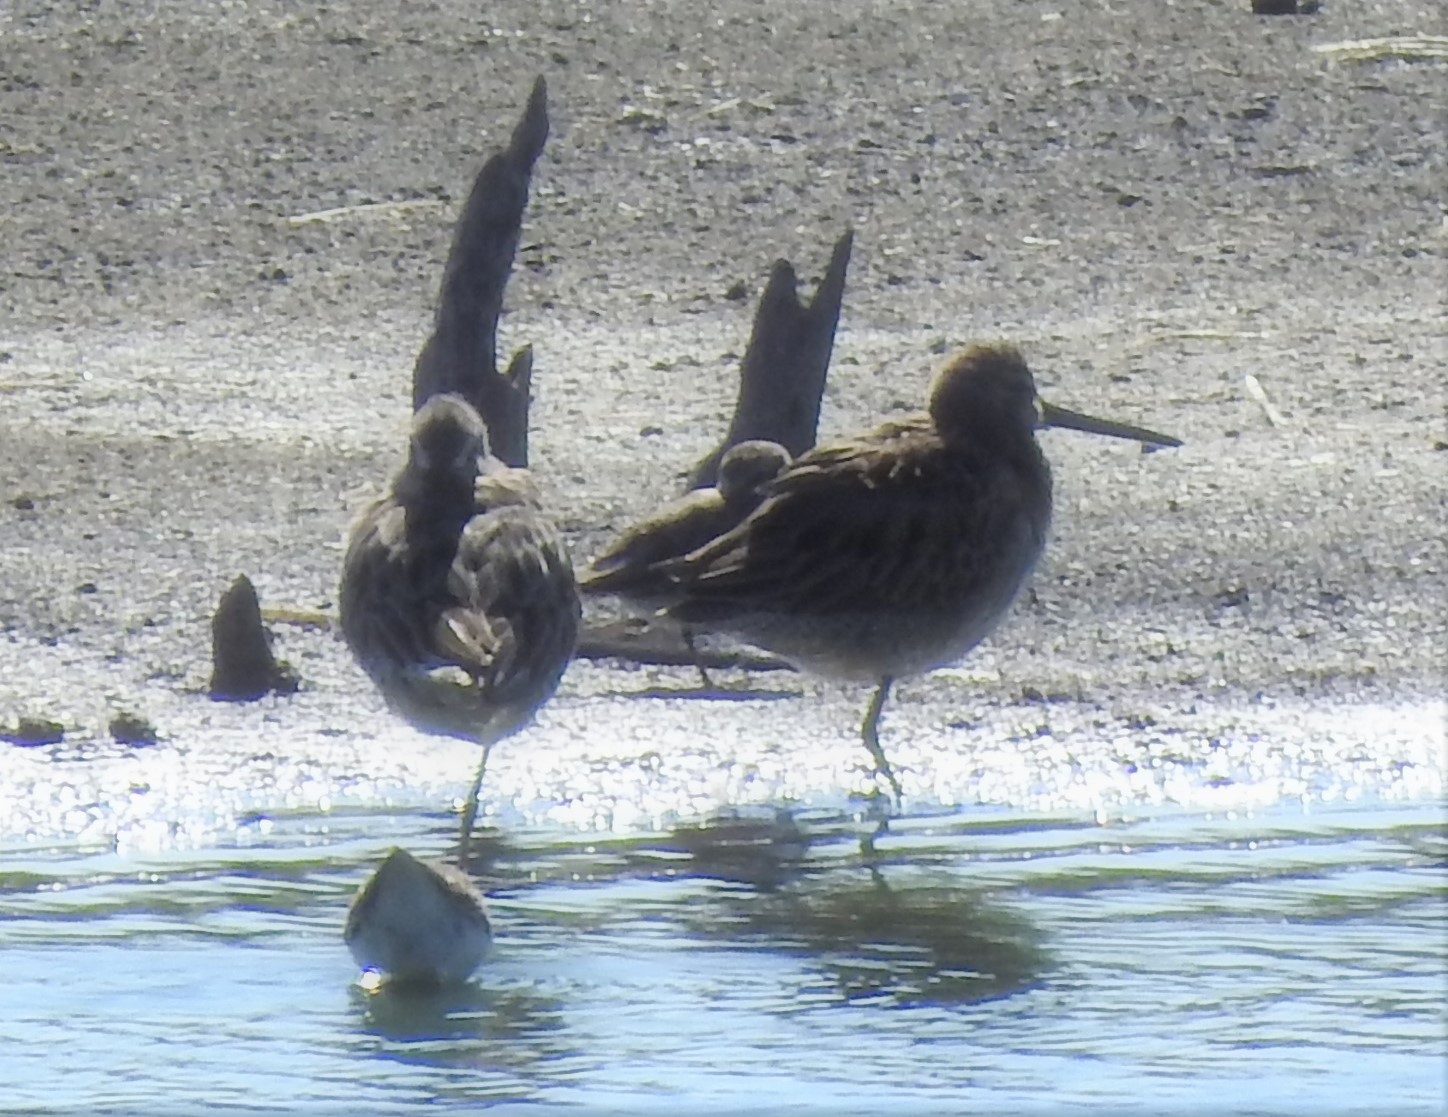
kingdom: Animalia
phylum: Chordata
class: Aves
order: Charadriiformes
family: Scolopacidae
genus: Tringa
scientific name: Tringa semipalmata
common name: Willet
